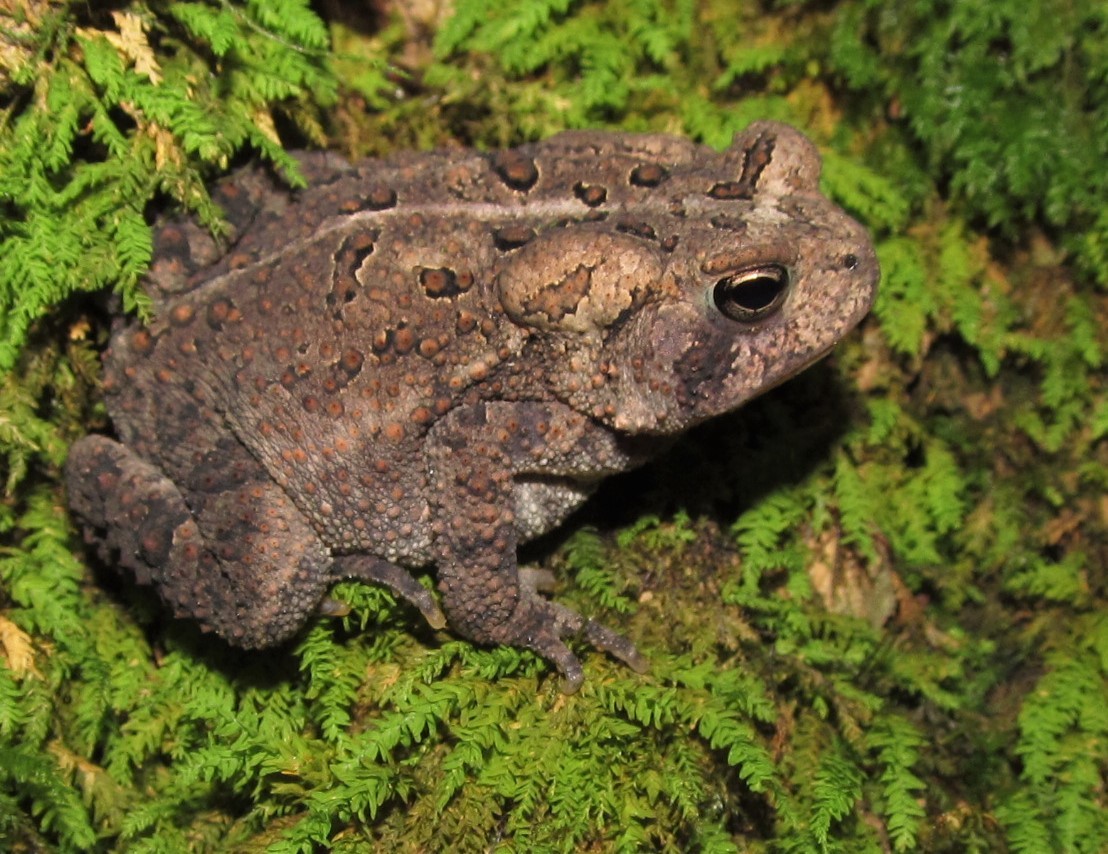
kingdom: Animalia
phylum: Chordata
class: Amphibia
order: Anura
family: Bufonidae
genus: Anaxyrus
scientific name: Anaxyrus americanus
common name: American toad
